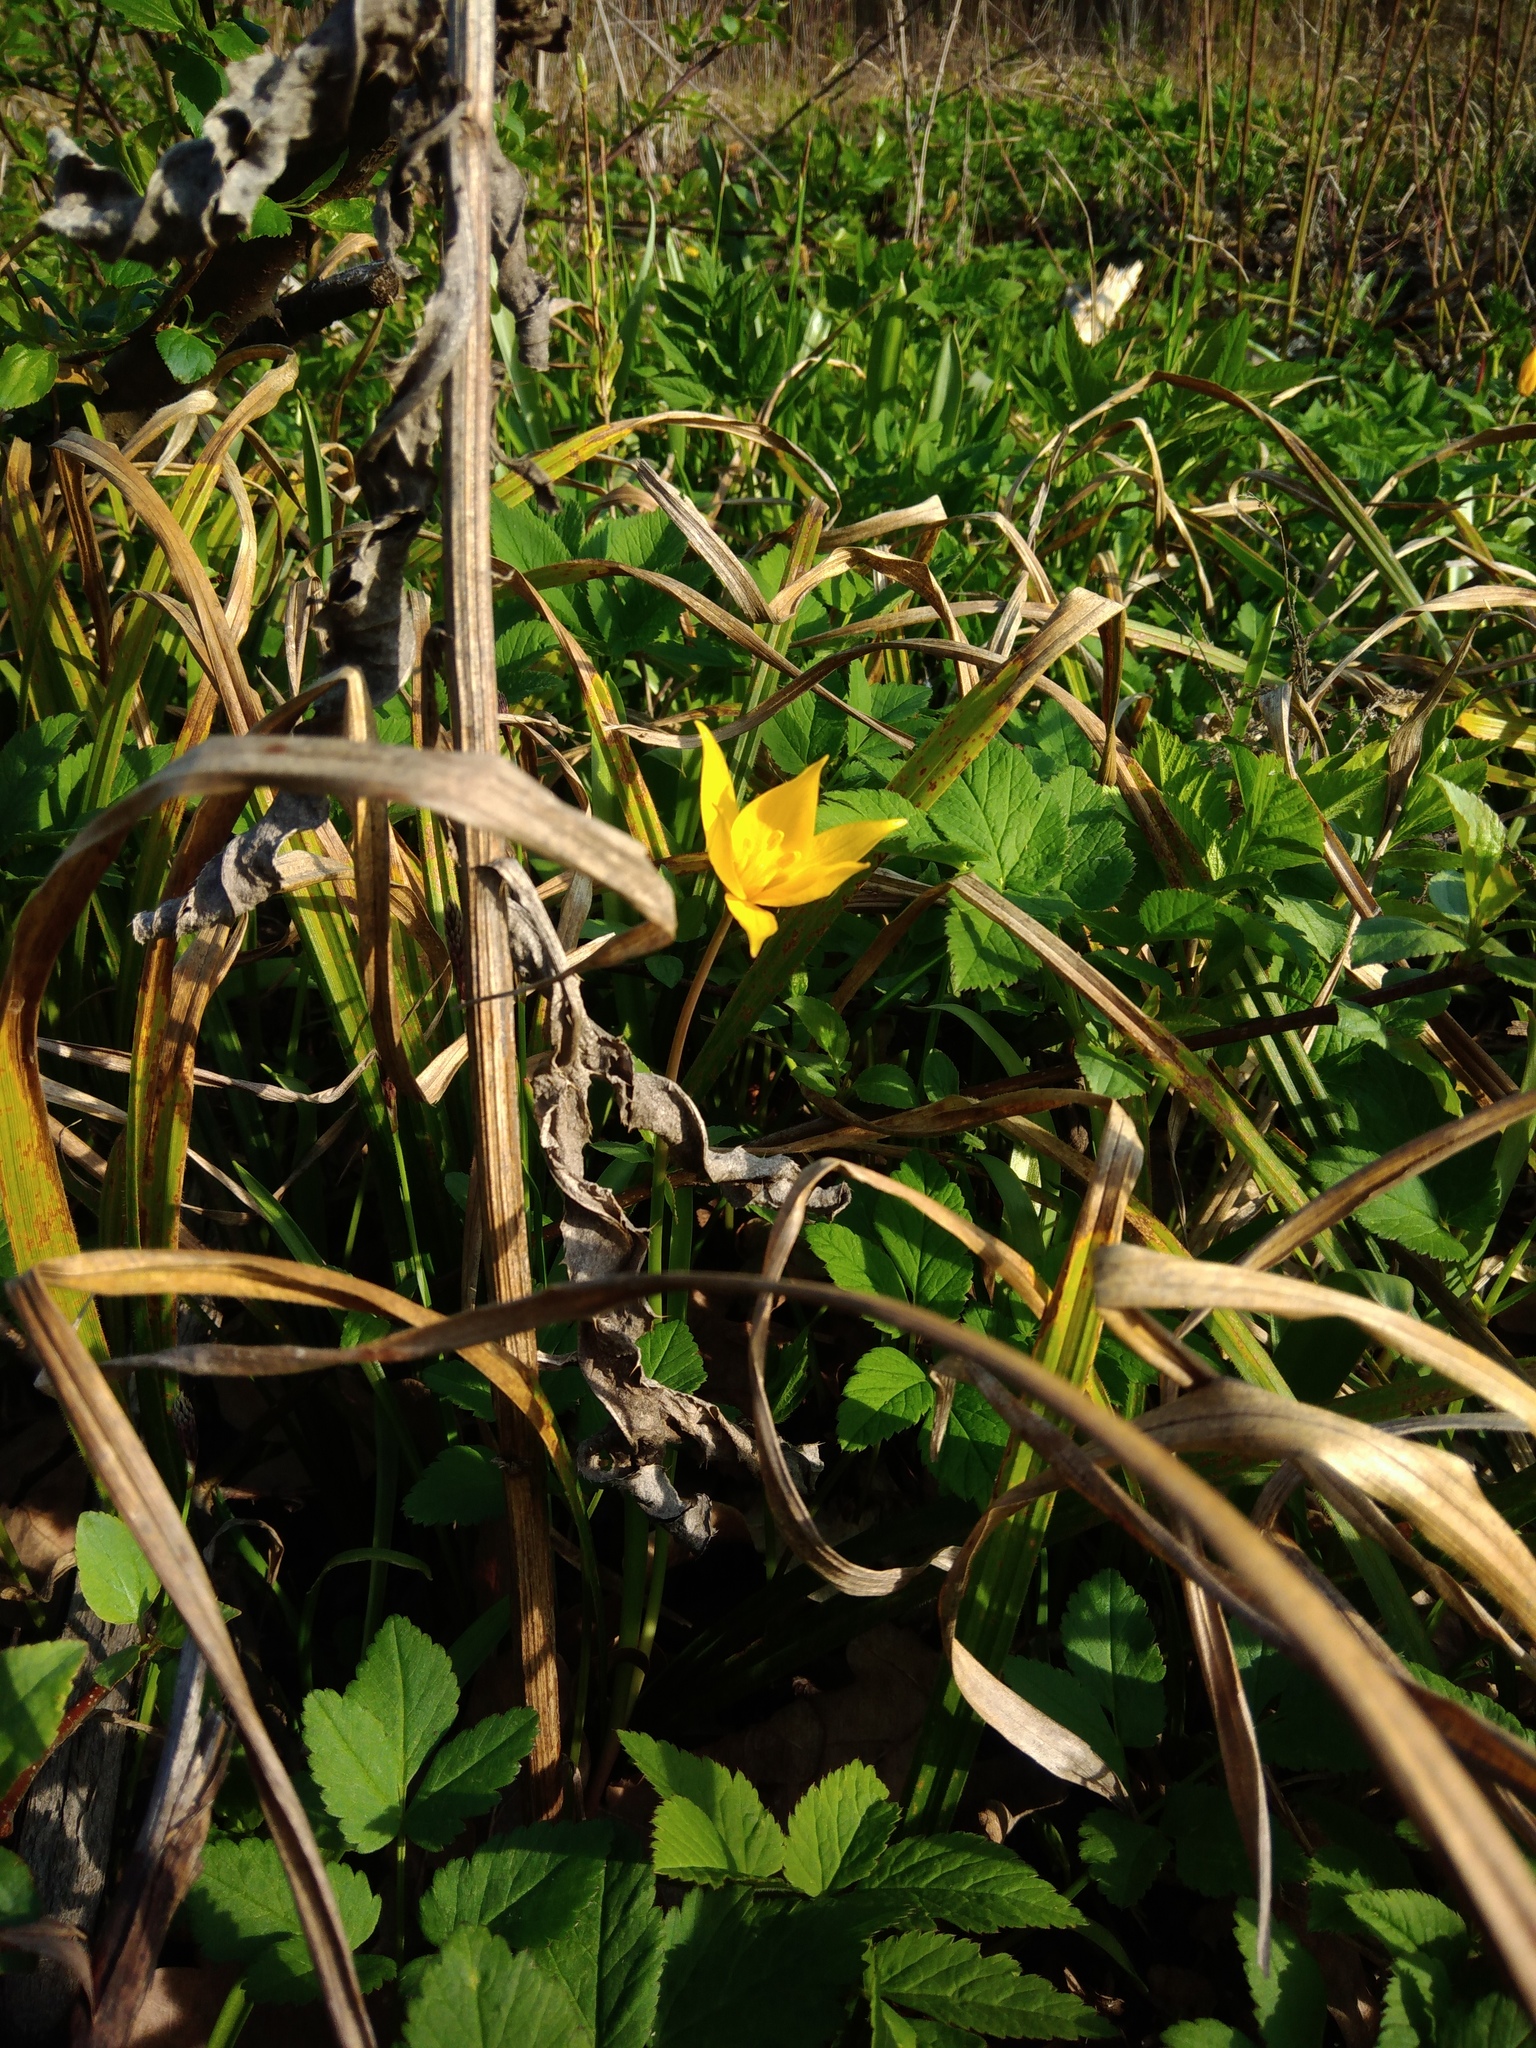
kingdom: Plantae
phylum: Tracheophyta
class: Liliopsida
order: Liliales
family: Liliaceae
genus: Tulipa
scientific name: Tulipa sylvestris
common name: Wild tulip
